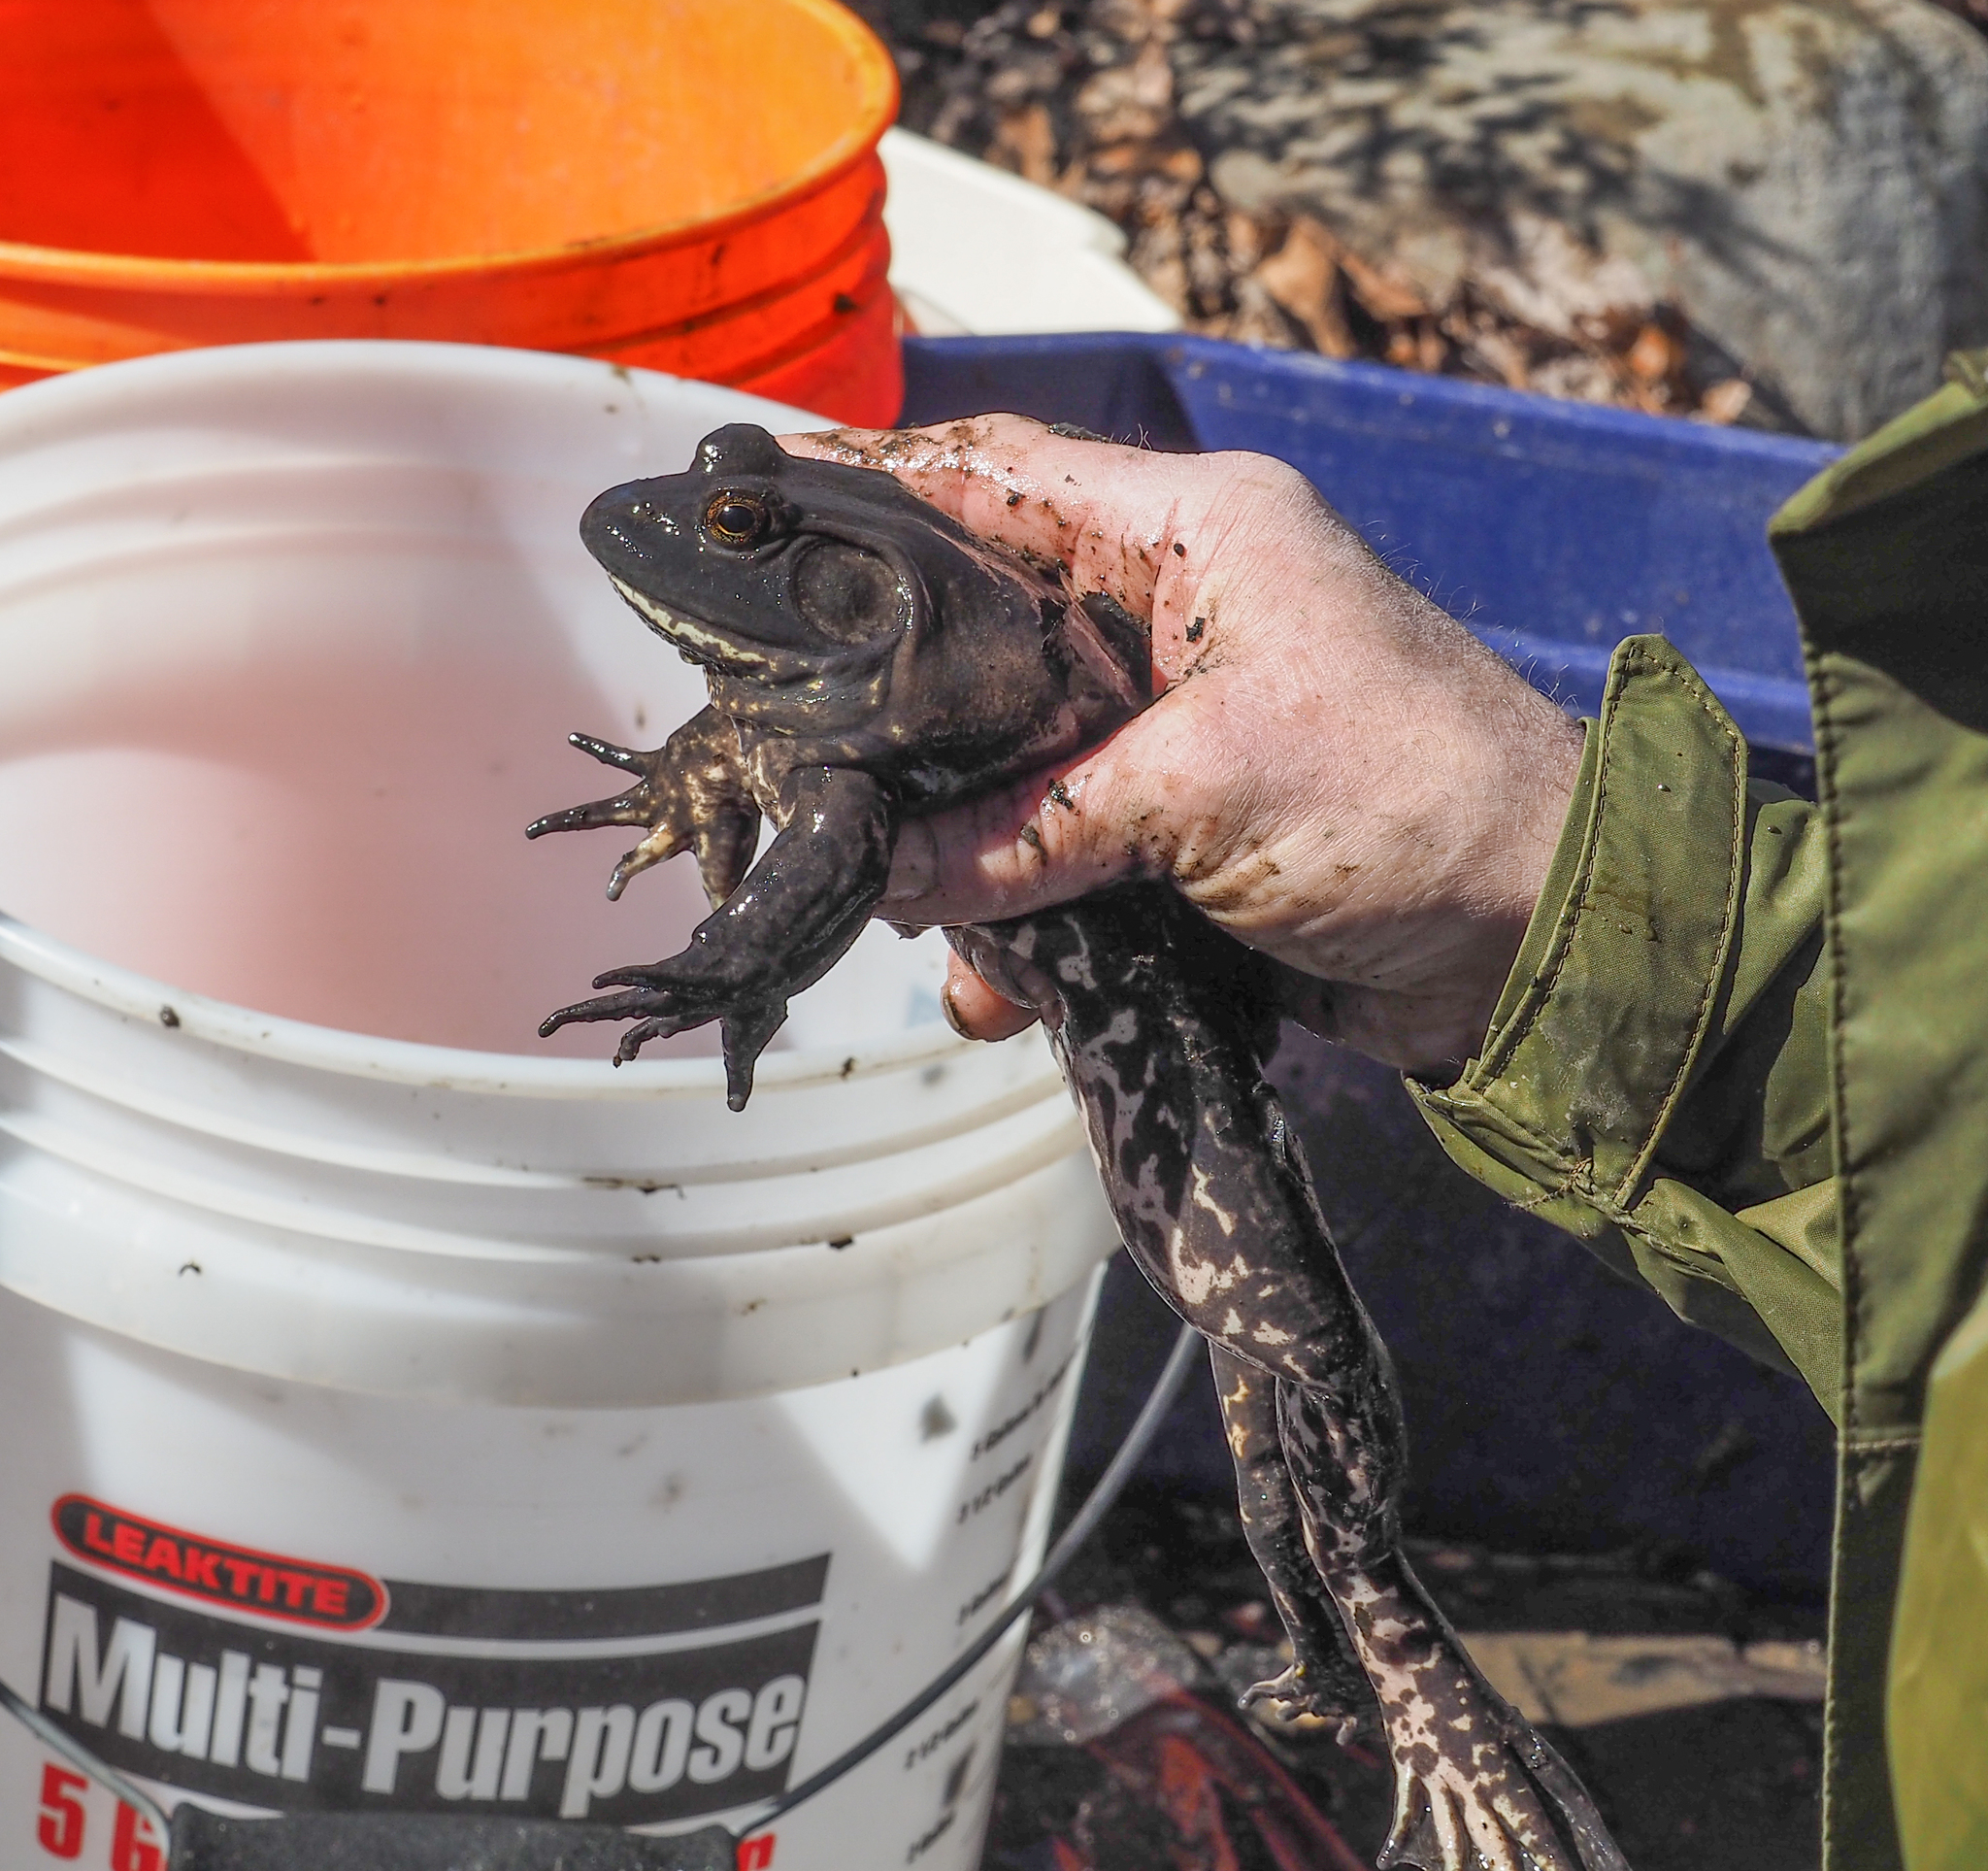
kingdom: Animalia
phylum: Chordata
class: Amphibia
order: Anura
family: Ranidae
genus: Lithobates
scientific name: Lithobates catesbeianus
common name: American bullfrog
